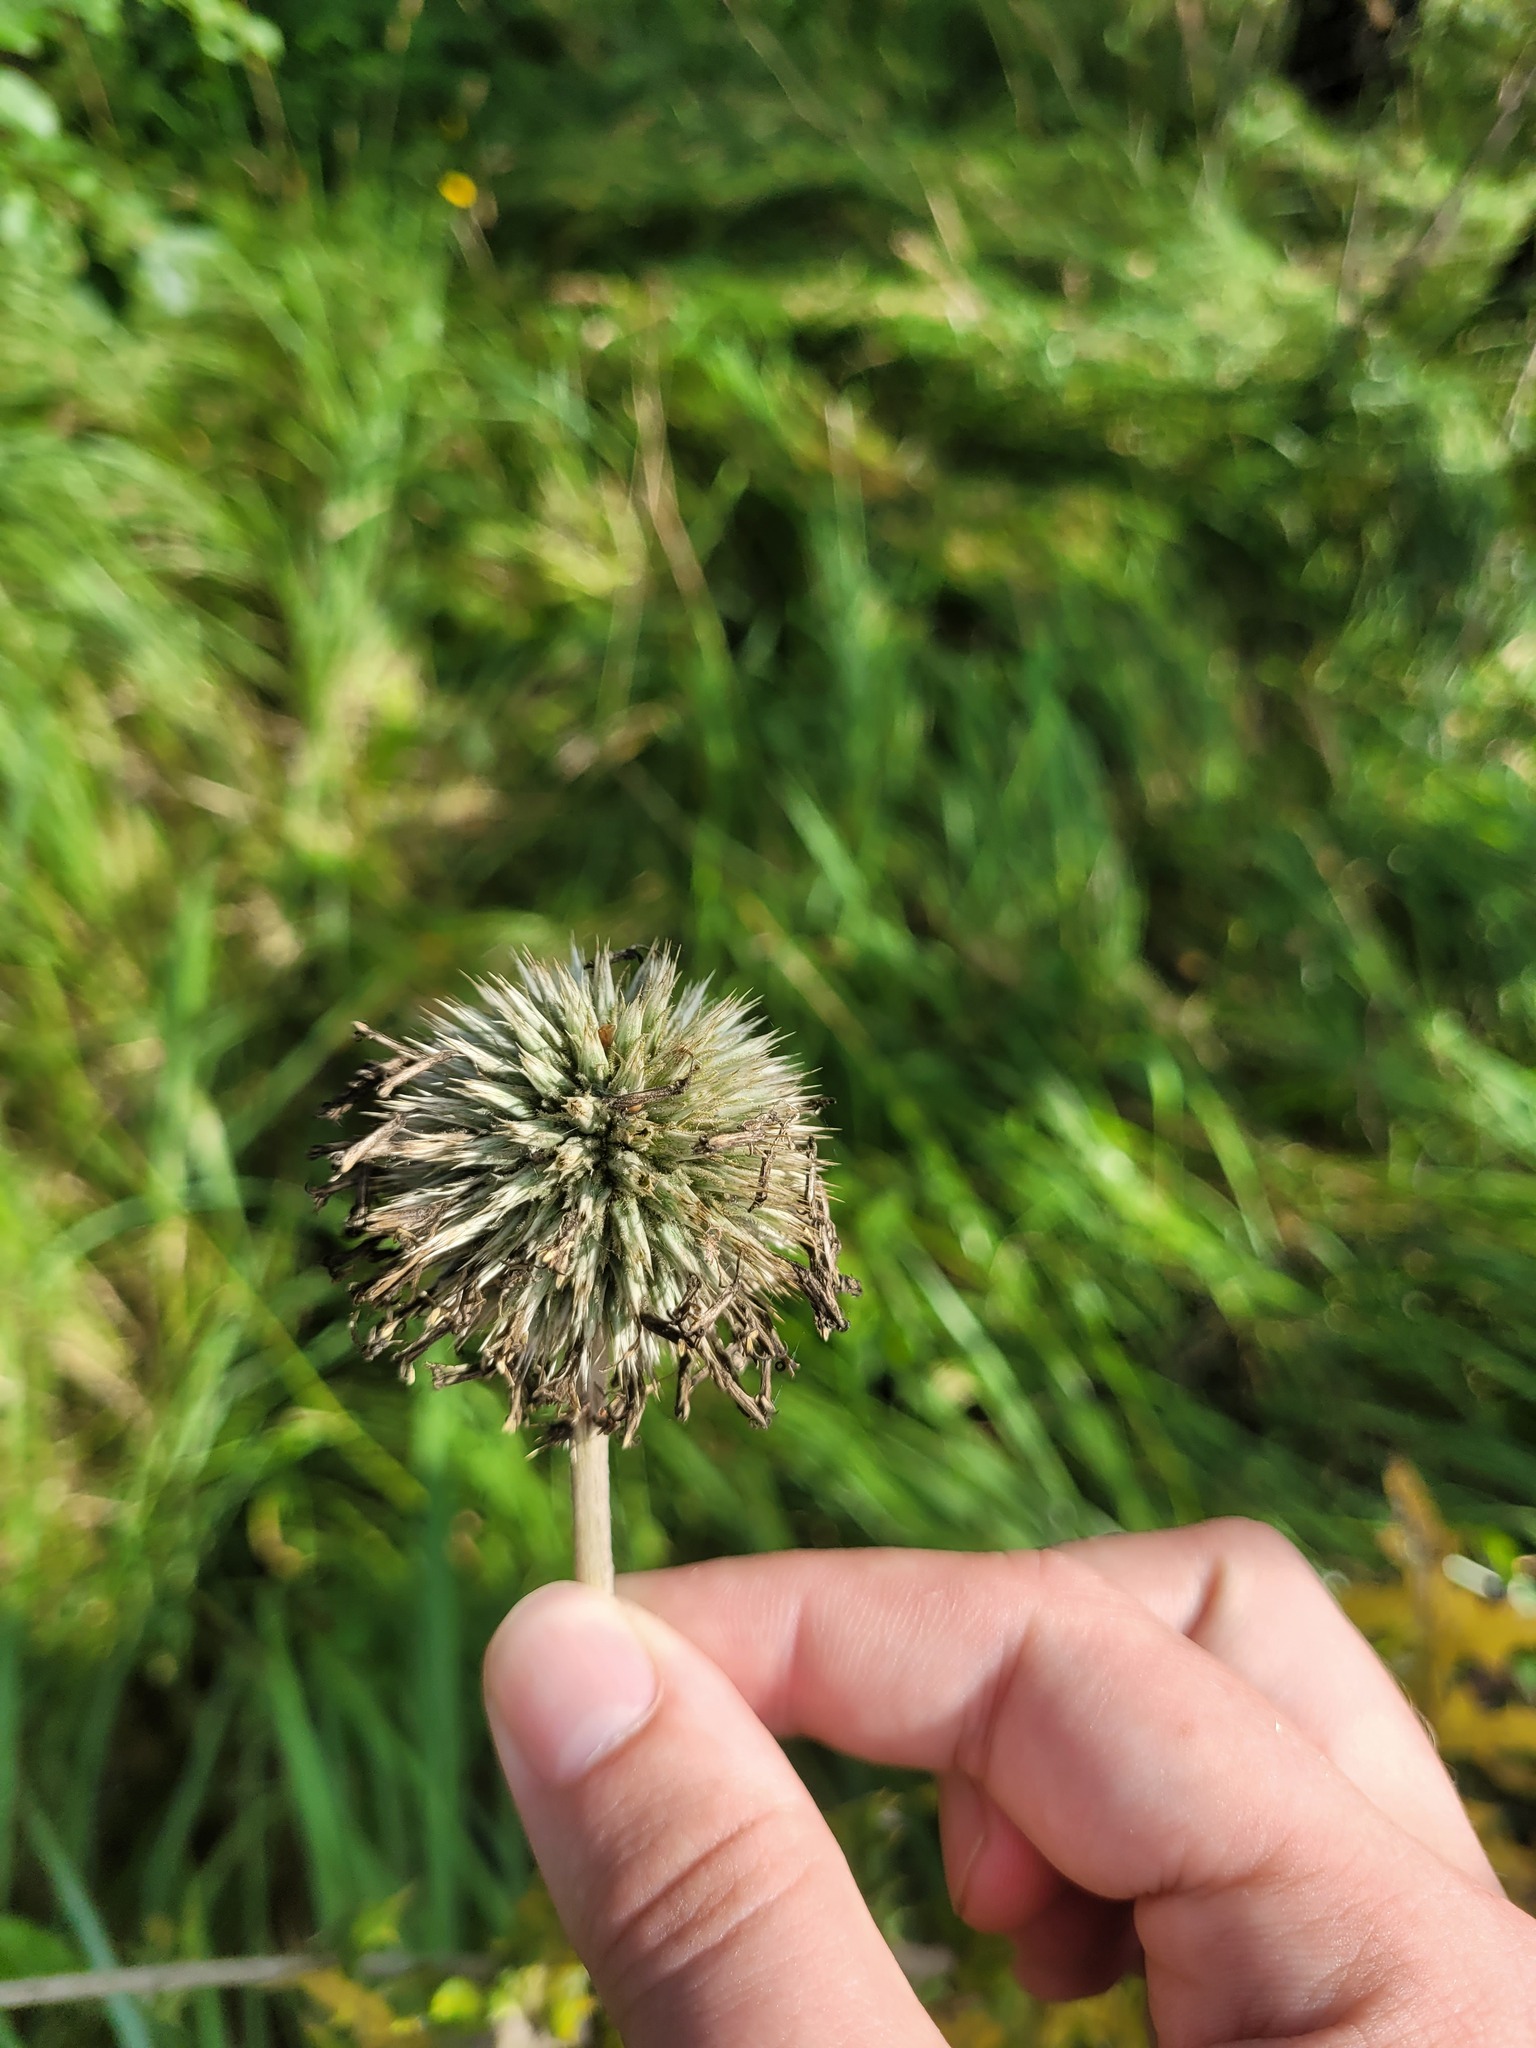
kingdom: Plantae
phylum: Tracheophyta
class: Magnoliopsida
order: Asterales
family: Asteraceae
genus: Echinops
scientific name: Echinops sphaerocephalus
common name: Glandular globe-thistle
